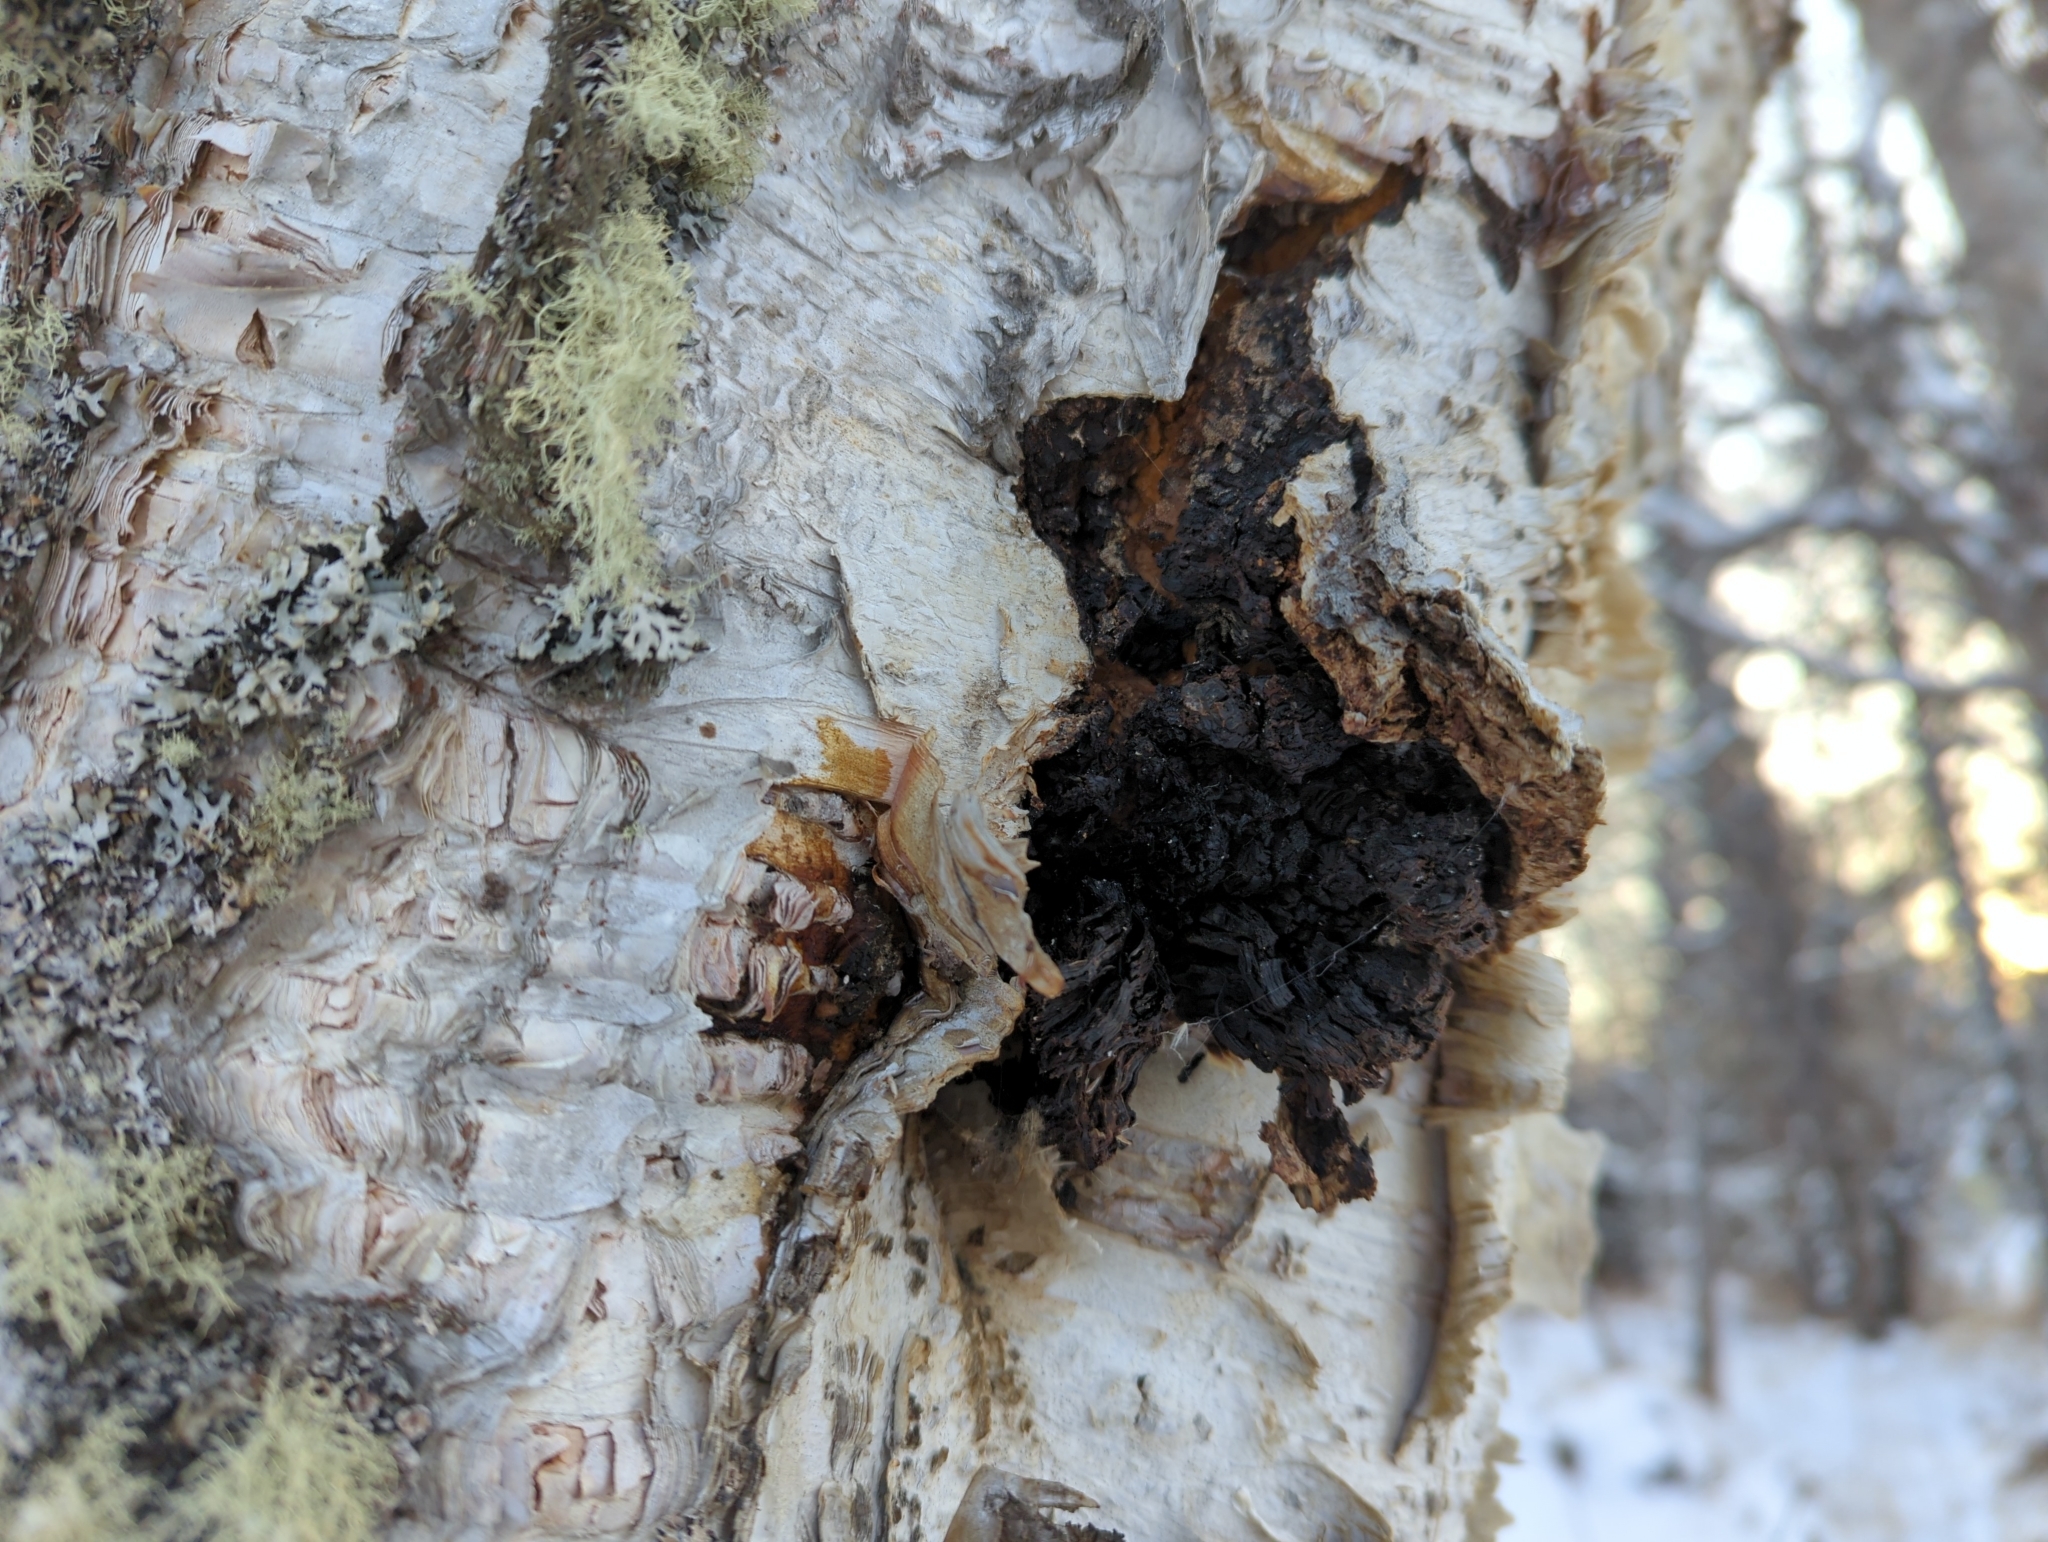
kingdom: Fungi
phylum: Basidiomycota
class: Agaricomycetes
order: Hymenochaetales
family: Hymenochaetaceae
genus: Inonotus
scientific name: Inonotus obliquus
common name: Chaga
